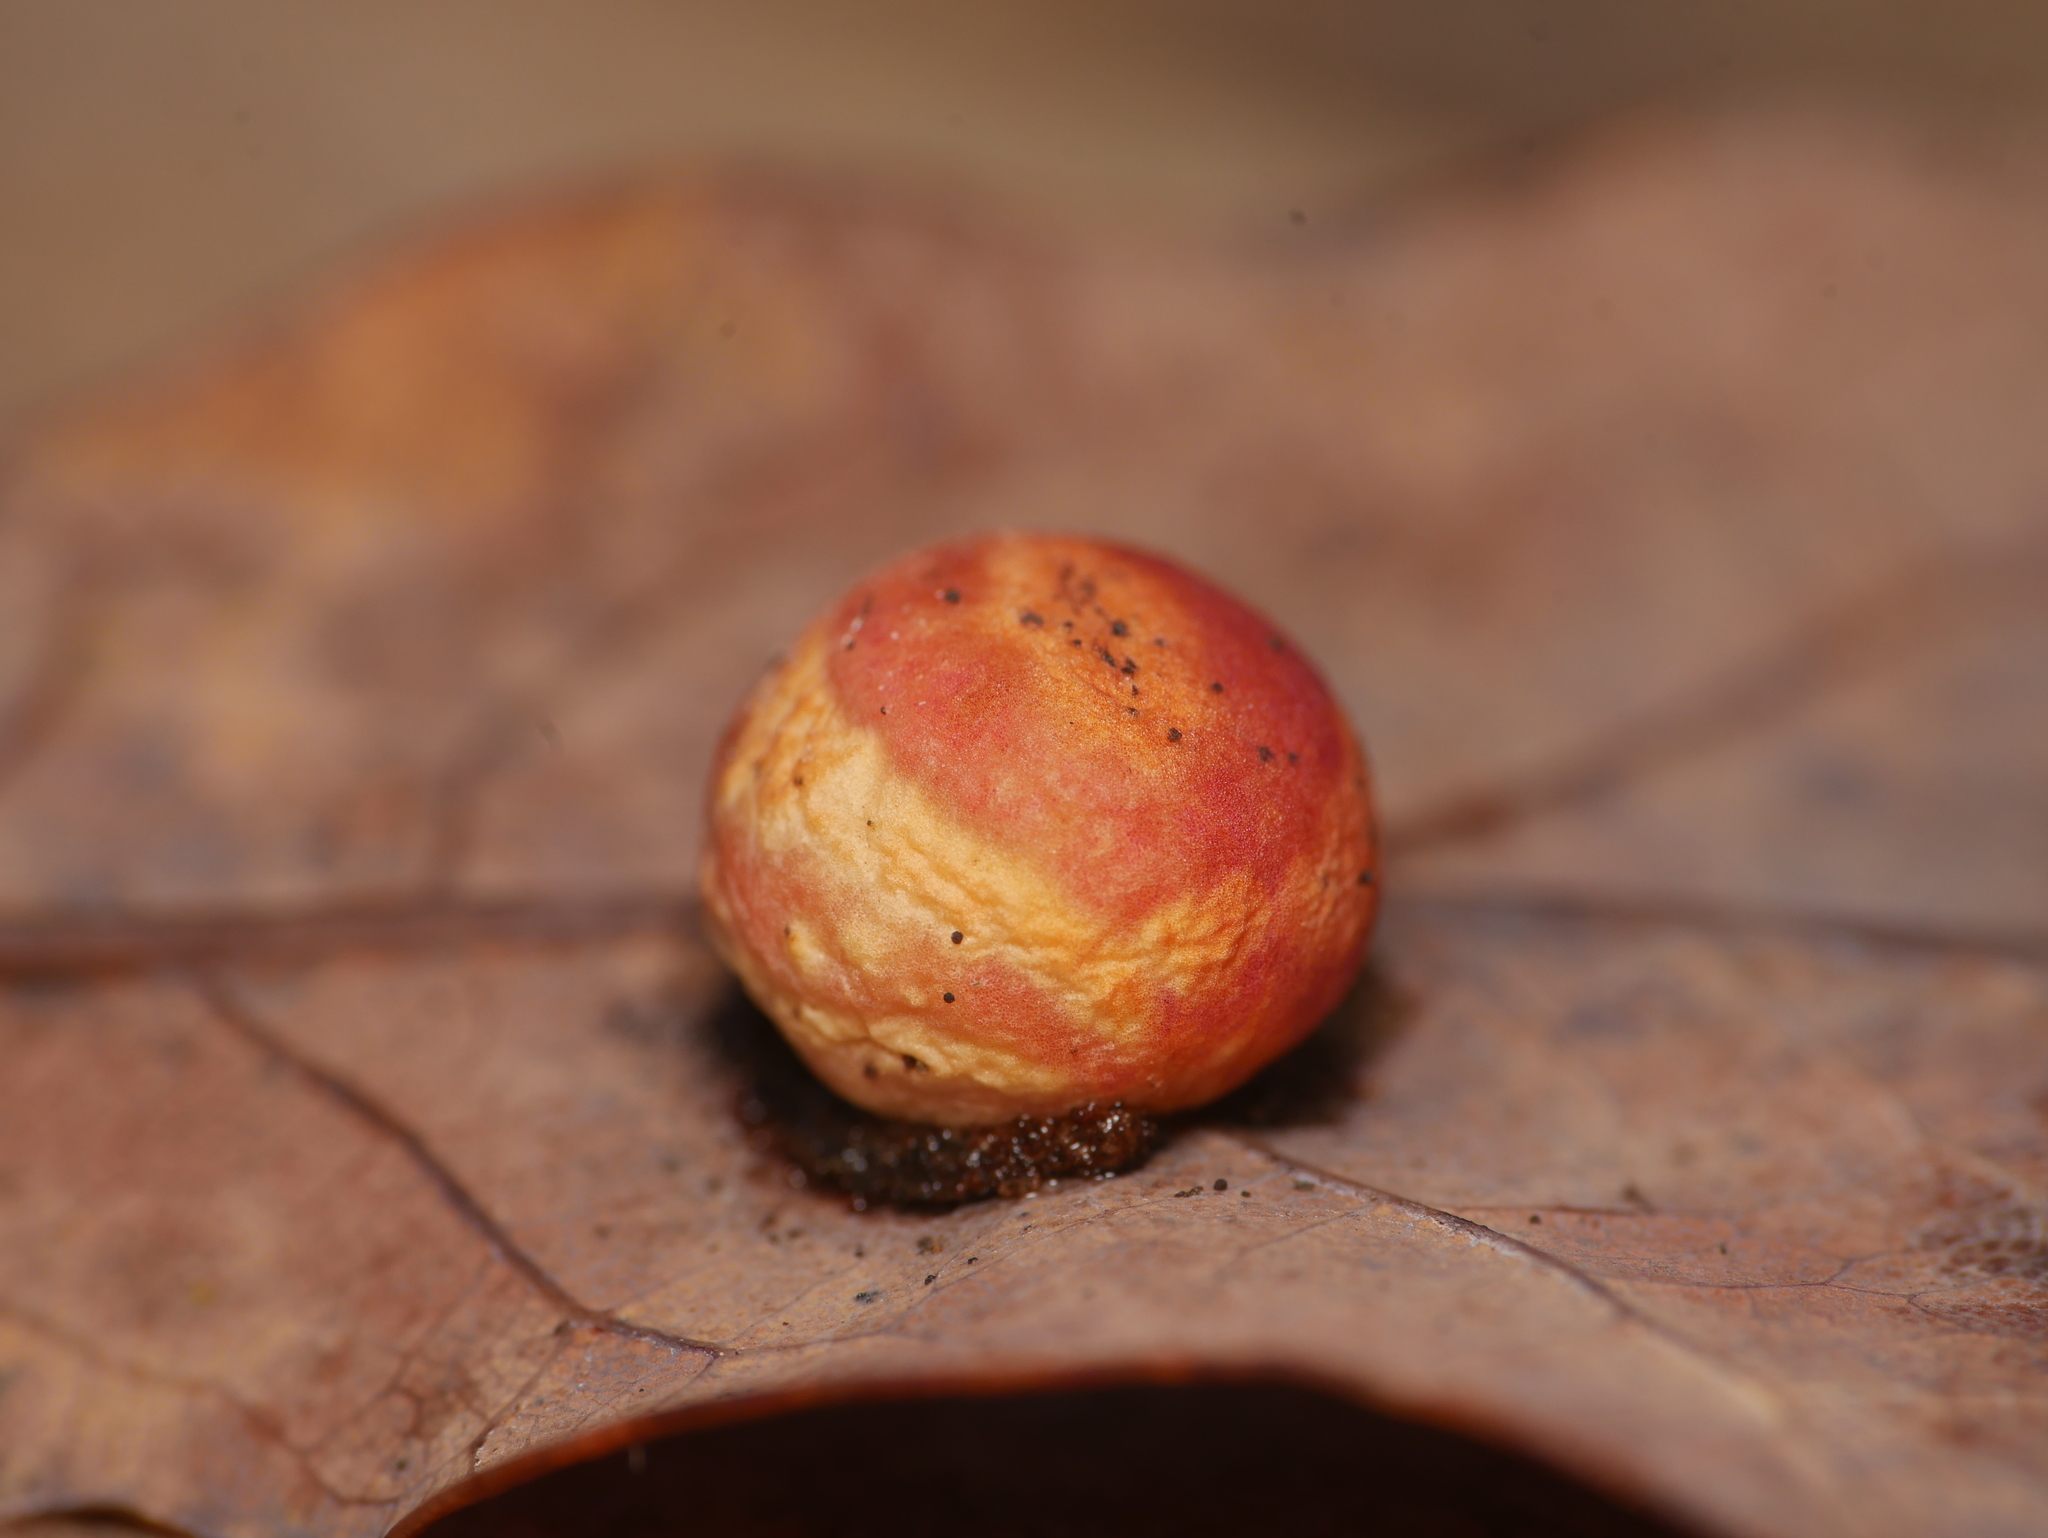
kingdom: Animalia
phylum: Arthropoda
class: Insecta
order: Hymenoptera
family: Cynipidae
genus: Cynips
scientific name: Cynips quercusfolii
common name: Cherry gall
